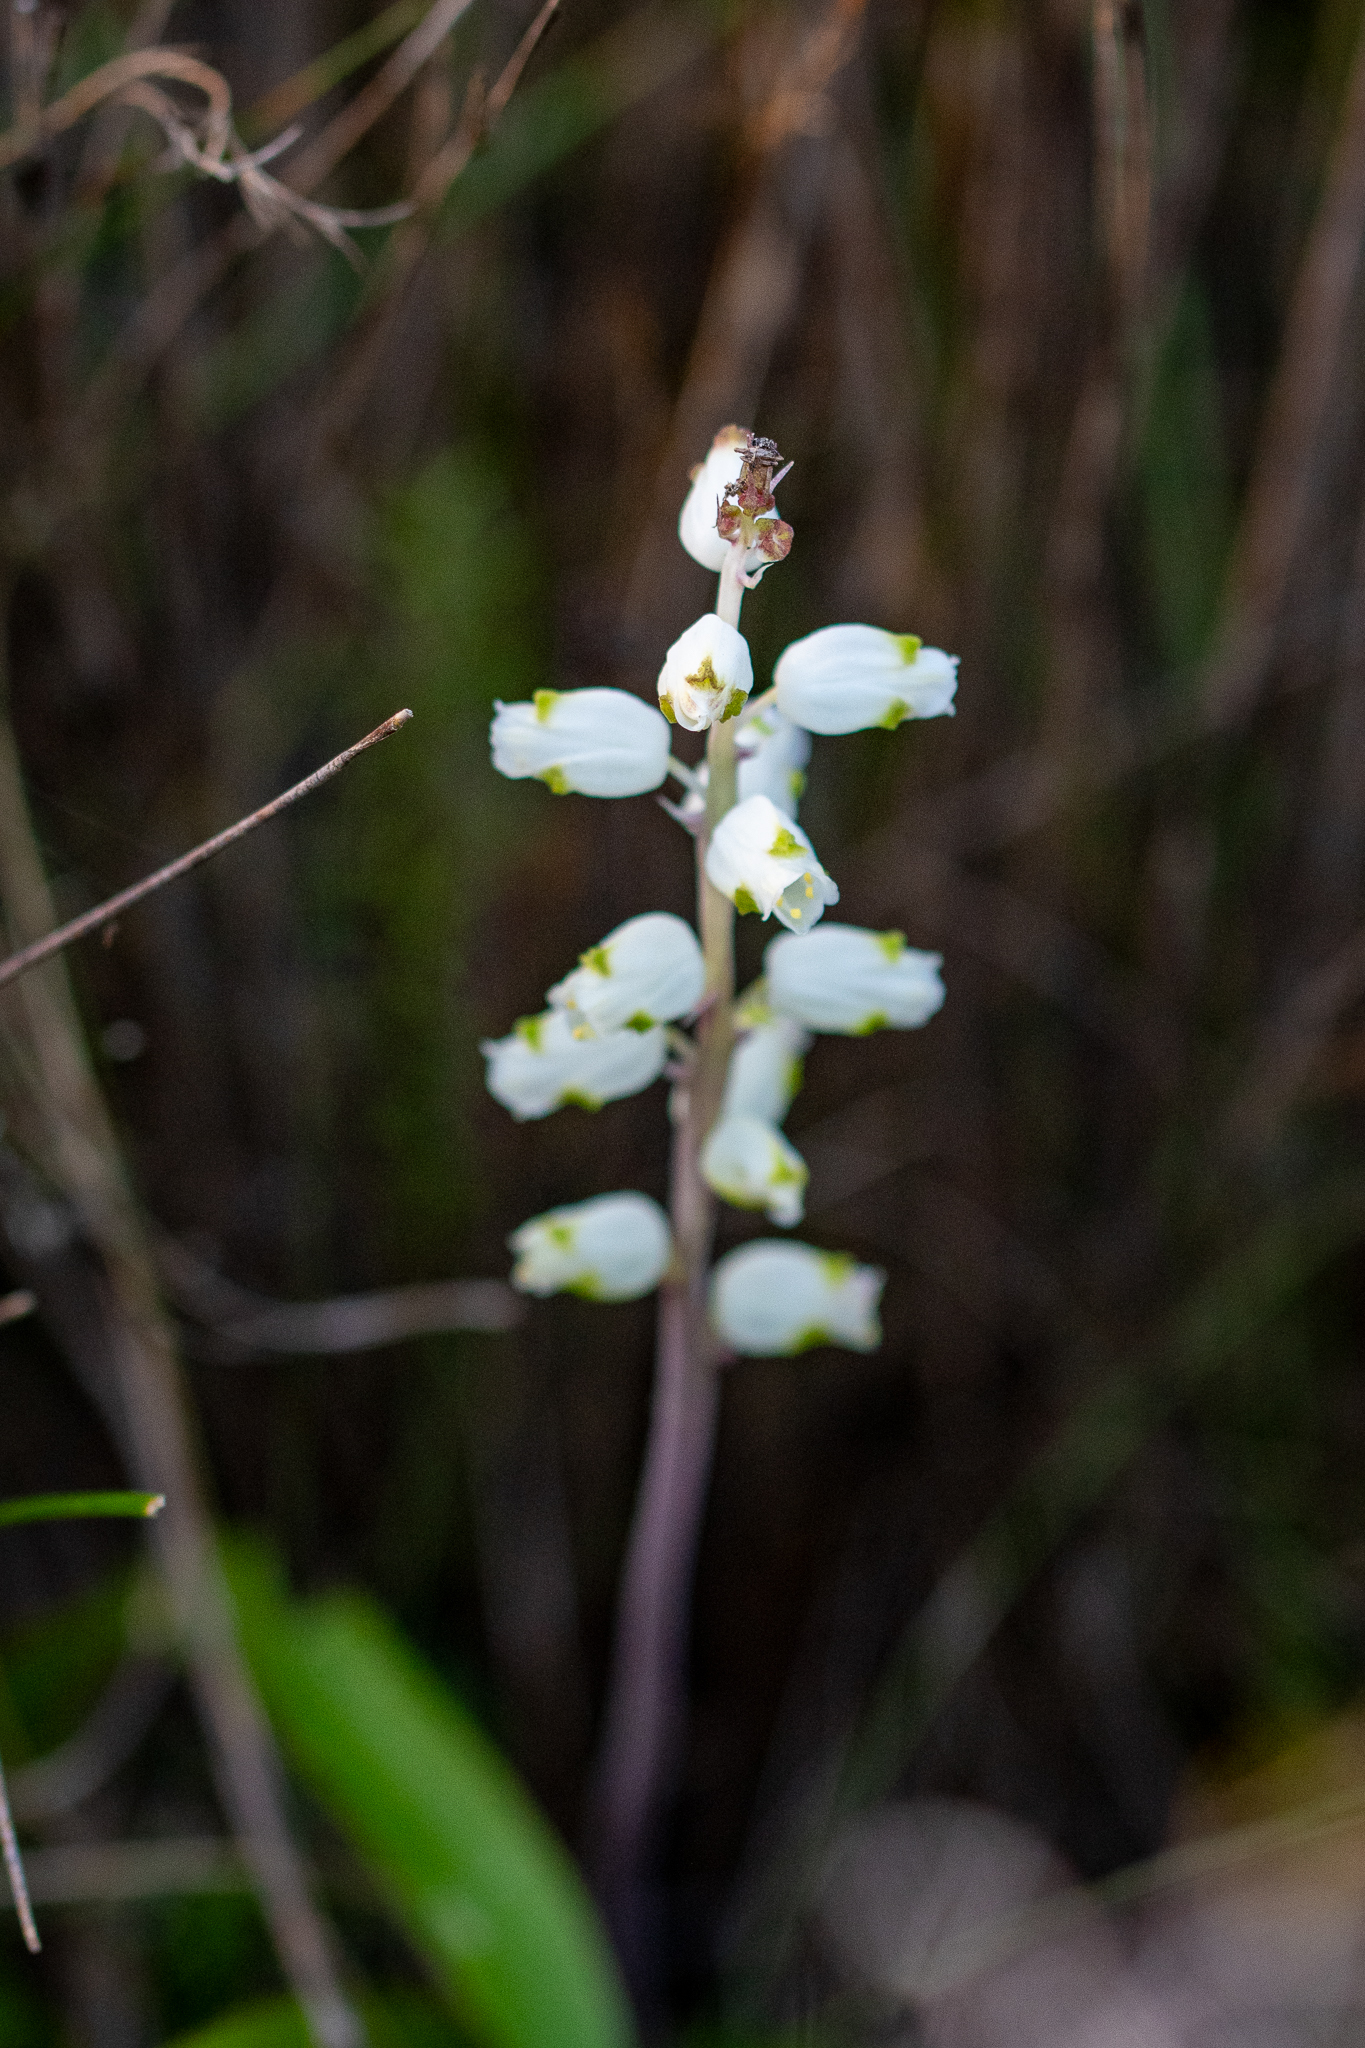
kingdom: Plantae
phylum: Tracheophyta
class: Liliopsida
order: Asparagales
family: Asparagaceae
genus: Lachenalia
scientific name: Lachenalia peersii
